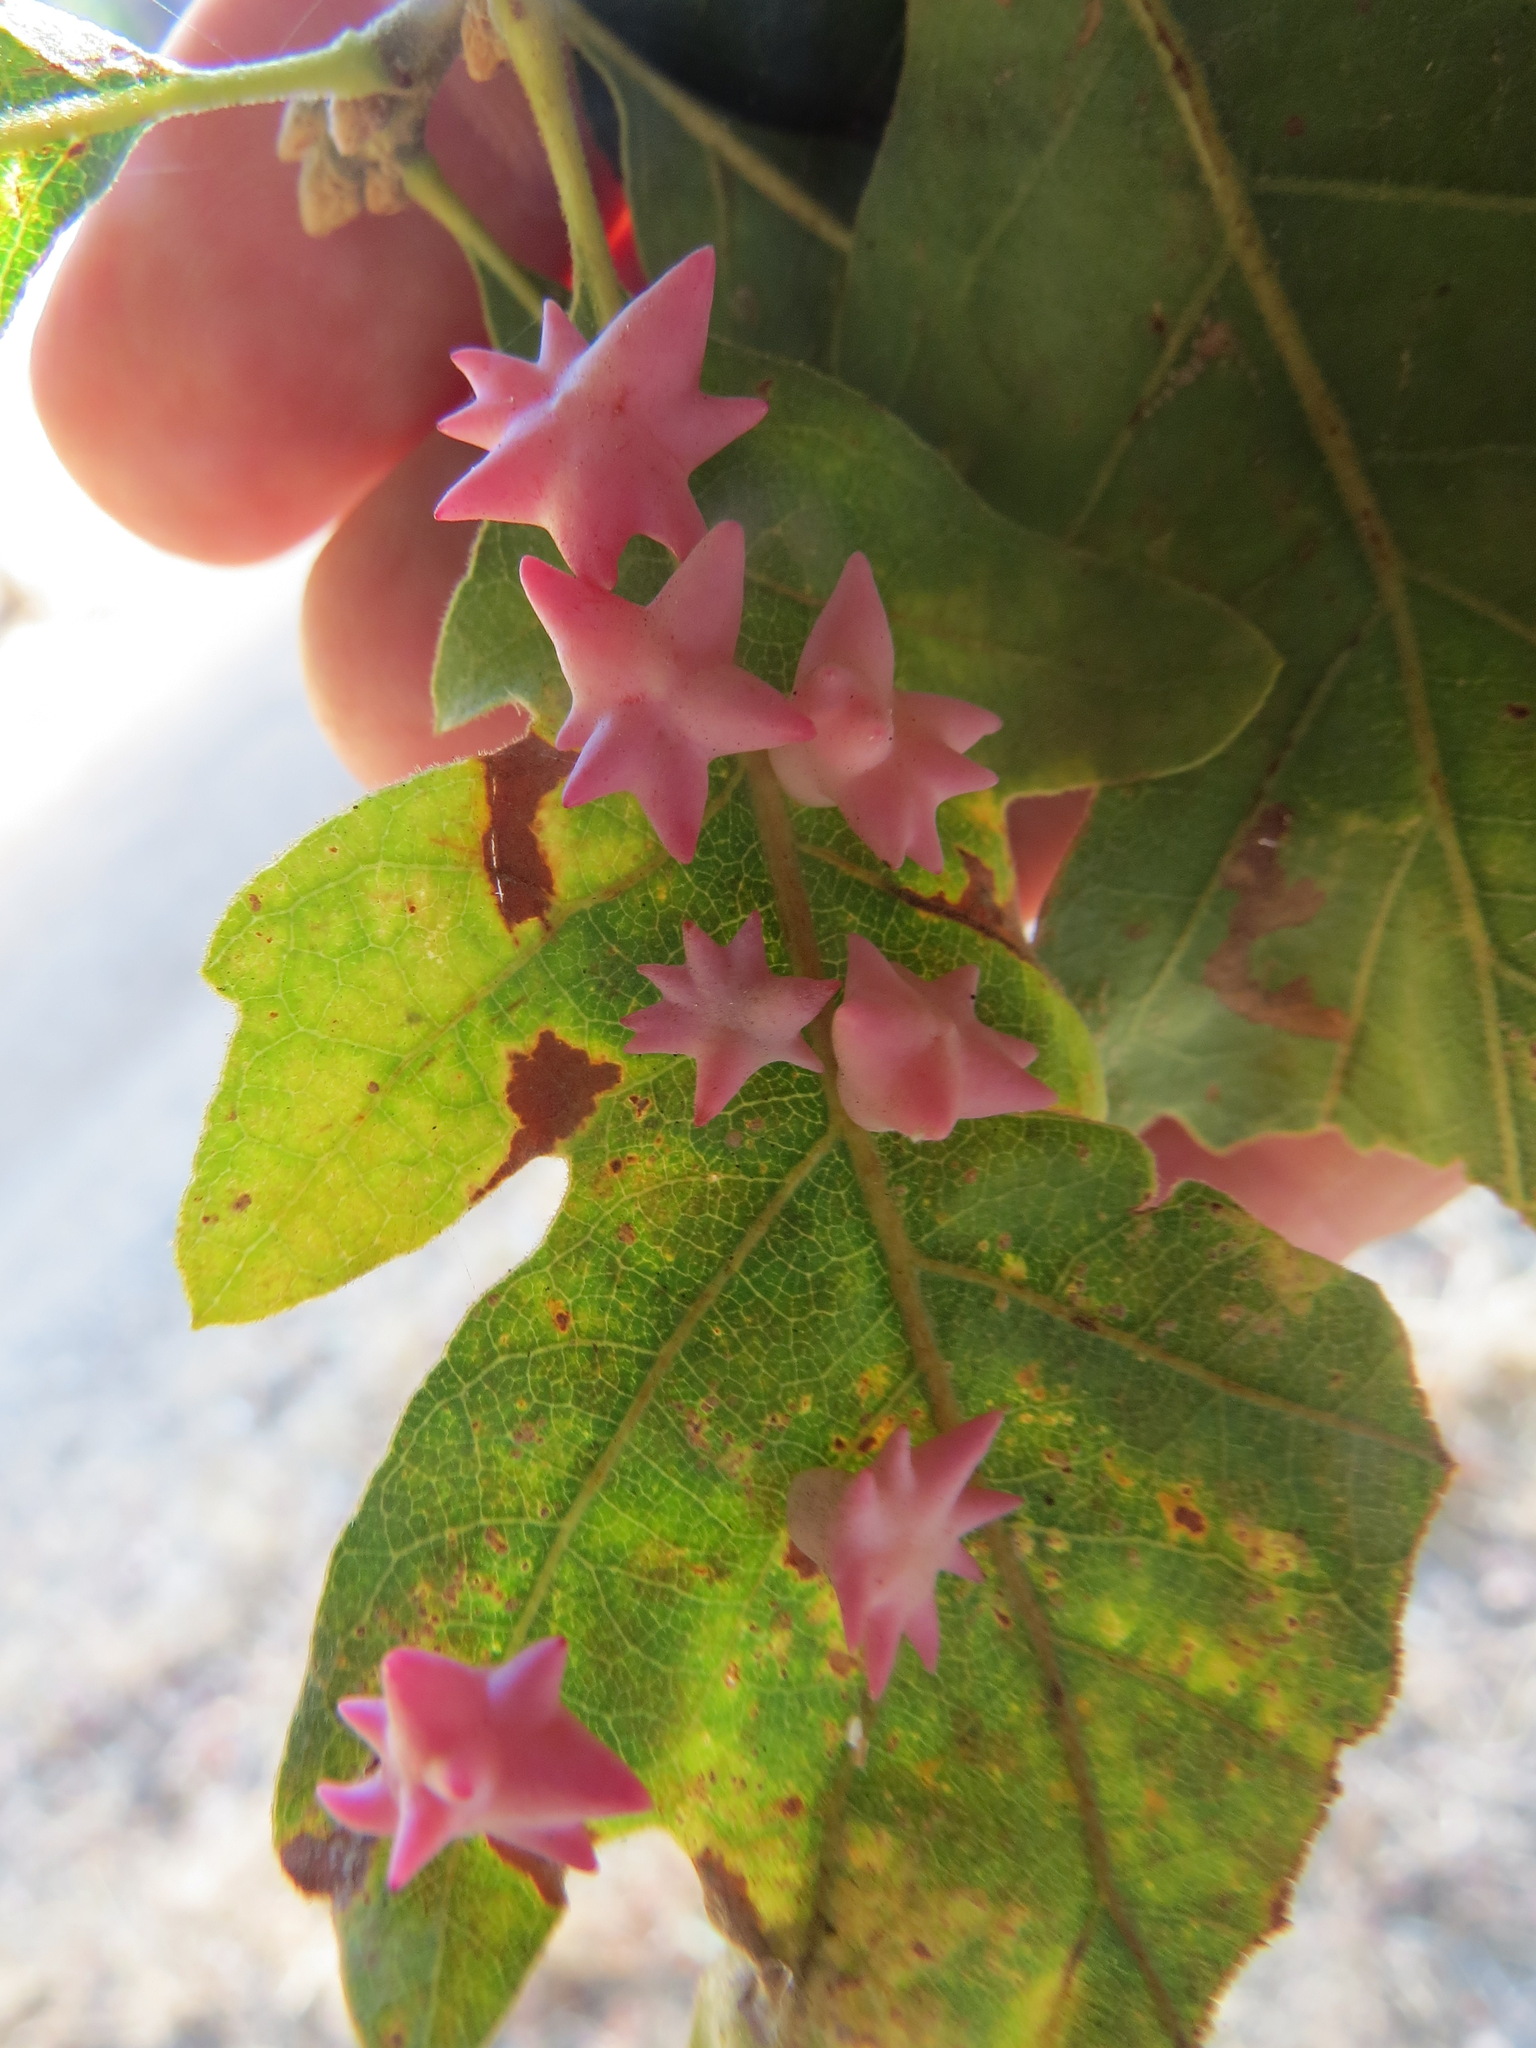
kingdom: Animalia
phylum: Arthropoda
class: Insecta
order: Hymenoptera
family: Cynipidae
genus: Cynips
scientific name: Cynips douglasi
